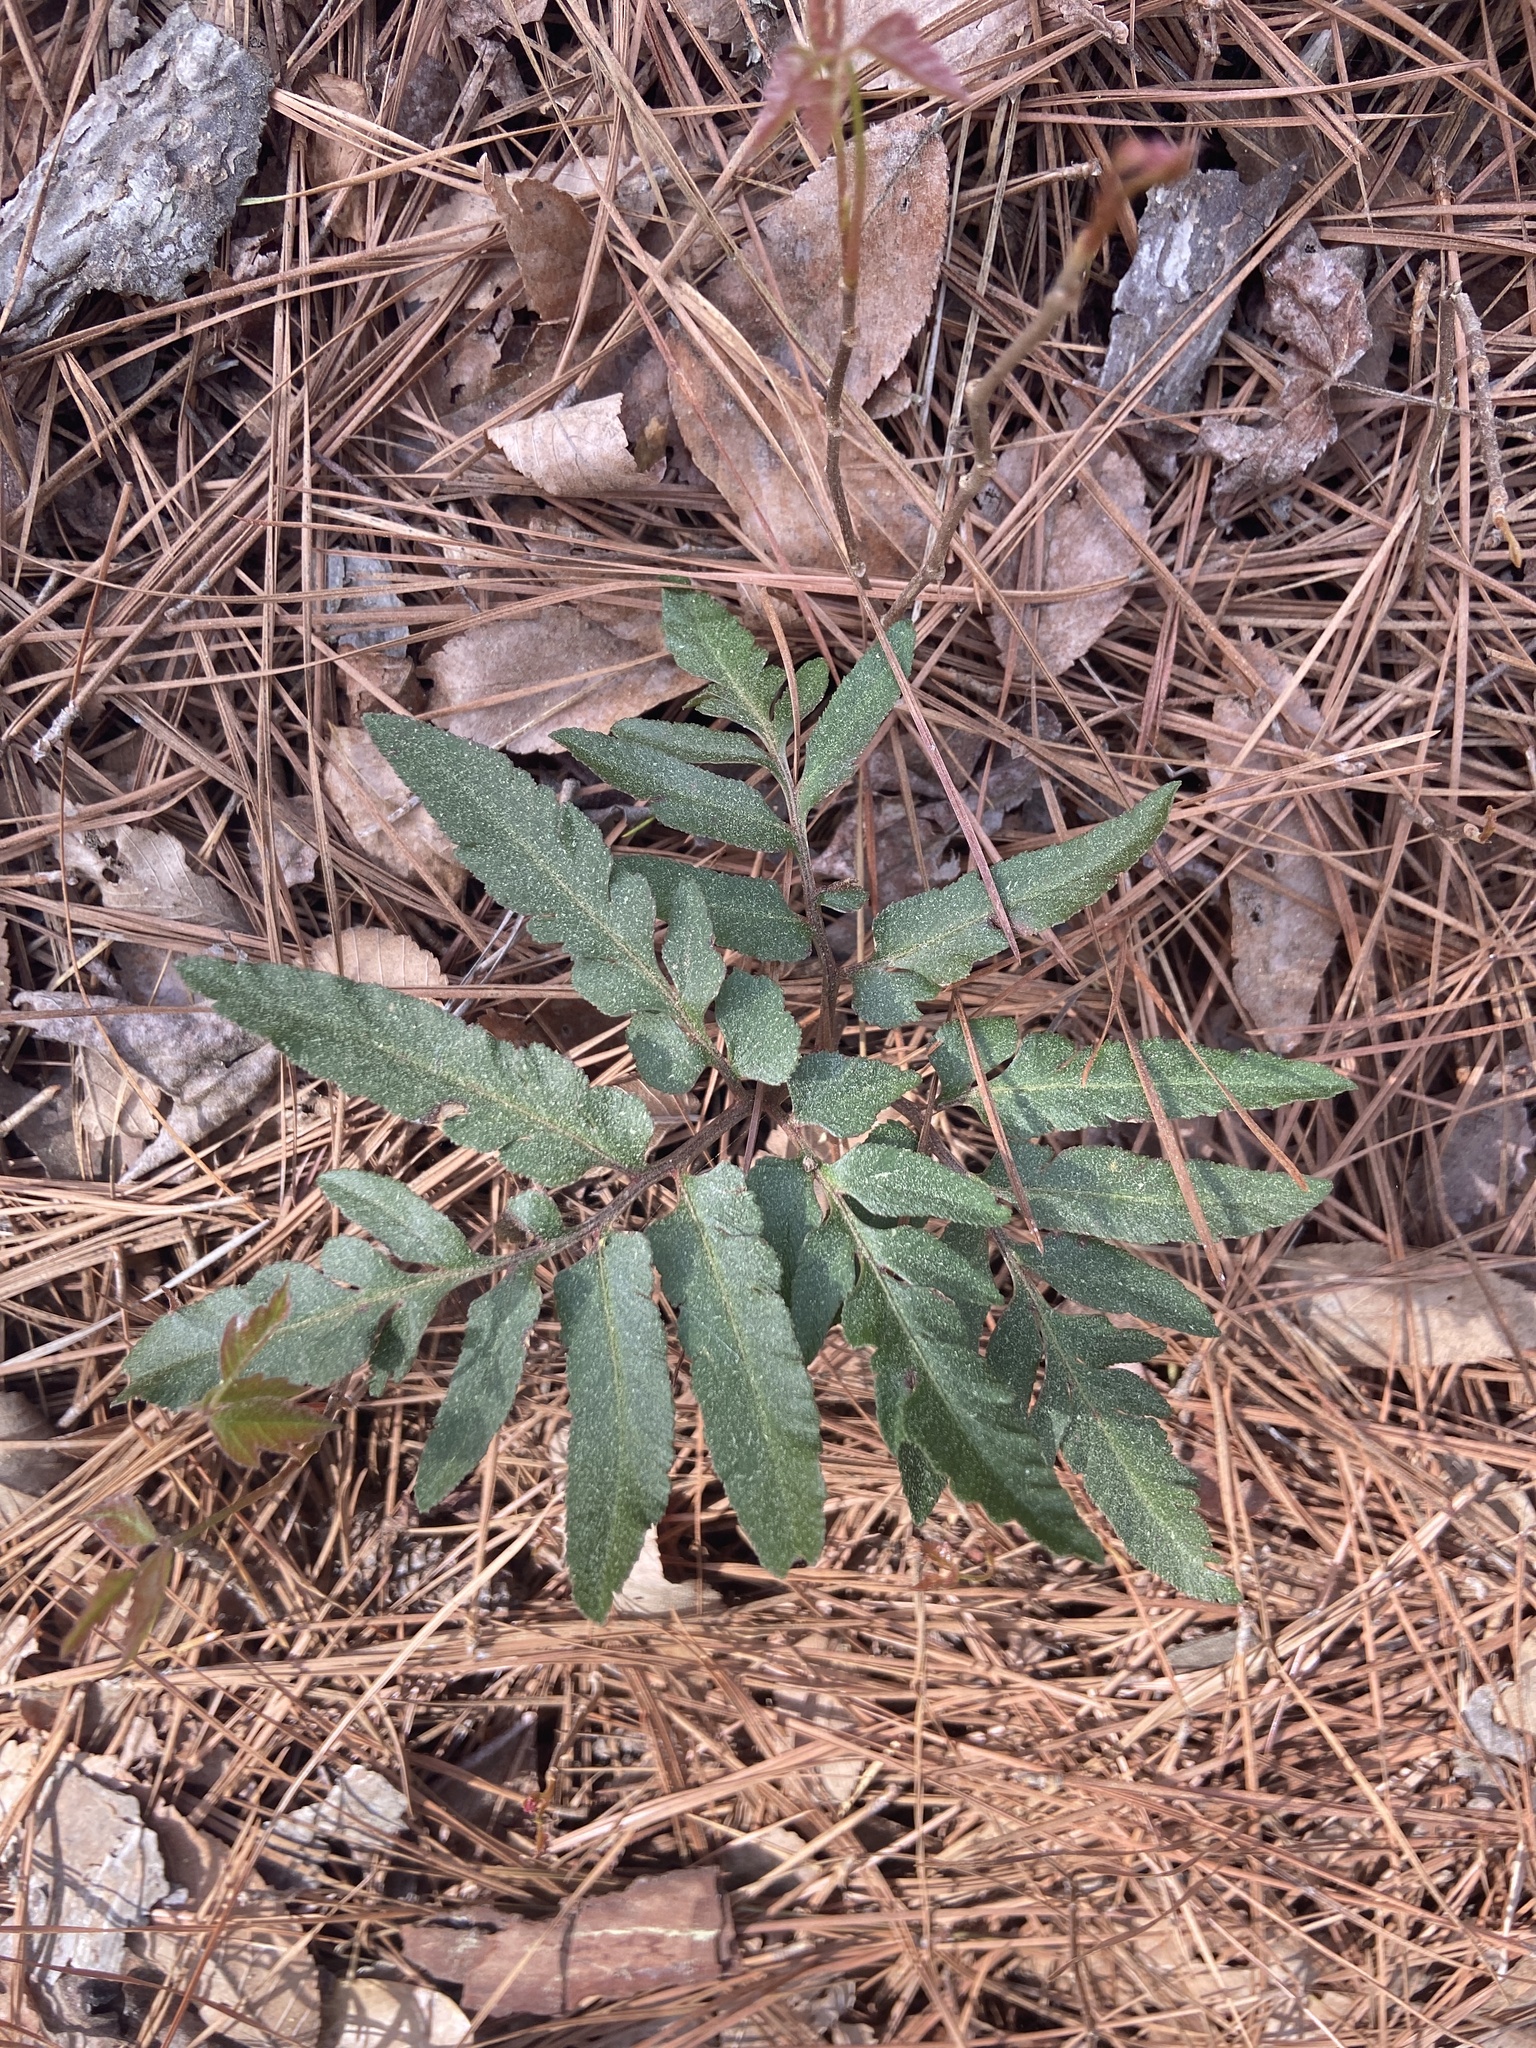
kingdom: Plantae
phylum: Tracheophyta
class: Polypodiopsida
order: Ophioglossales
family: Ophioglossaceae
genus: Sceptridium
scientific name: Sceptridium biternatum
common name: Sparse-lobed grapefern
